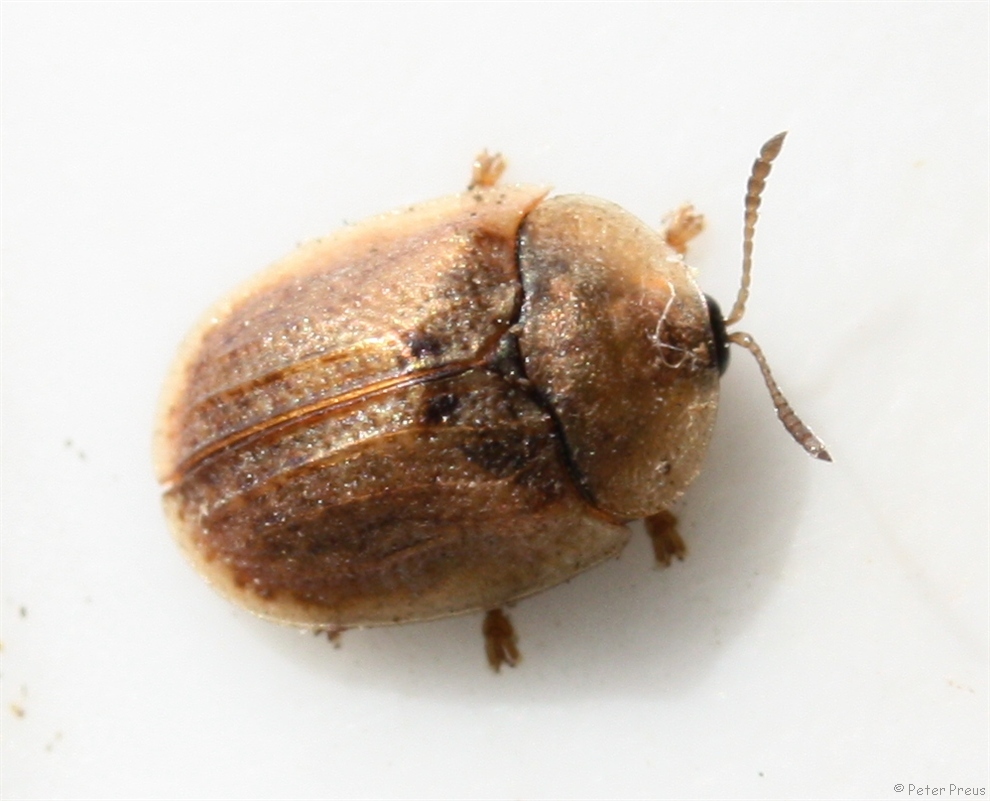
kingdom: Animalia
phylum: Arthropoda
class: Insecta
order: Coleoptera
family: Chrysomelidae
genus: Hypocassida
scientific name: Hypocassida subferruginea
